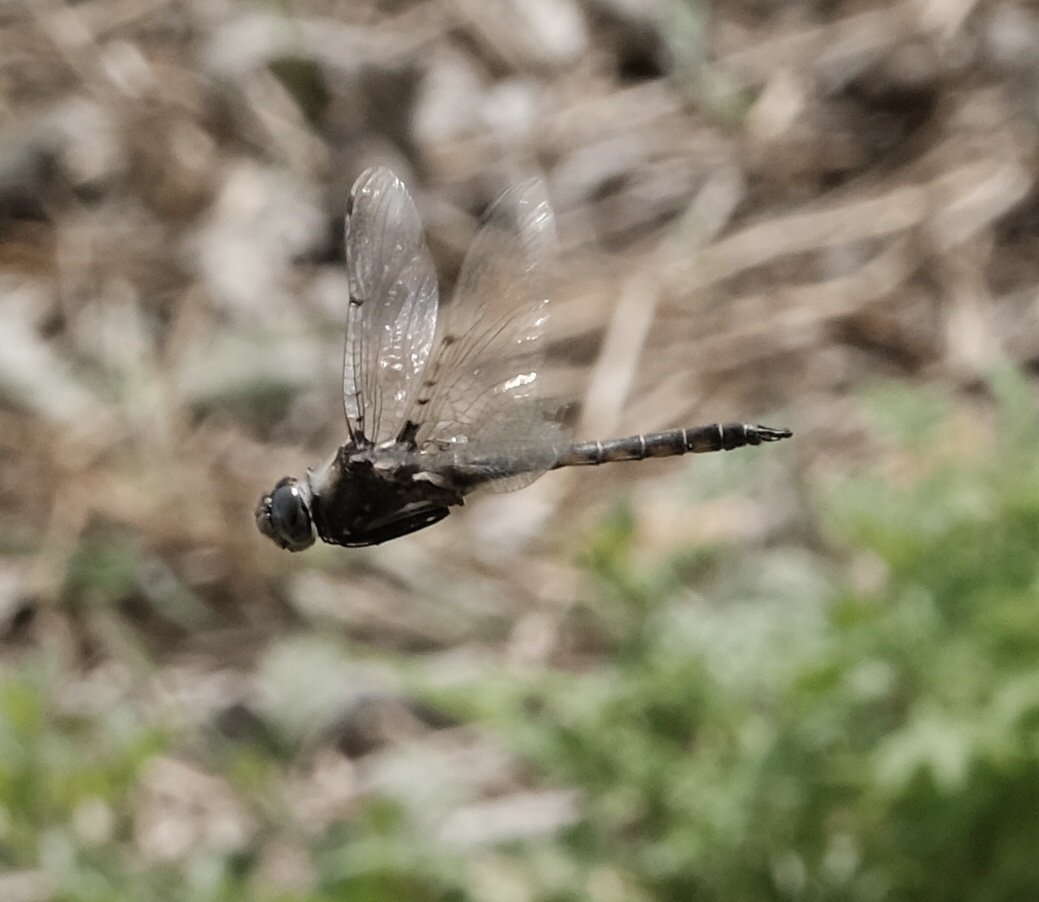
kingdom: Animalia
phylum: Arthropoda
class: Insecta
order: Odonata
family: Corduliidae
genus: Epitheca
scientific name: Epitheca petechialis
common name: Dot-winged baskettail
